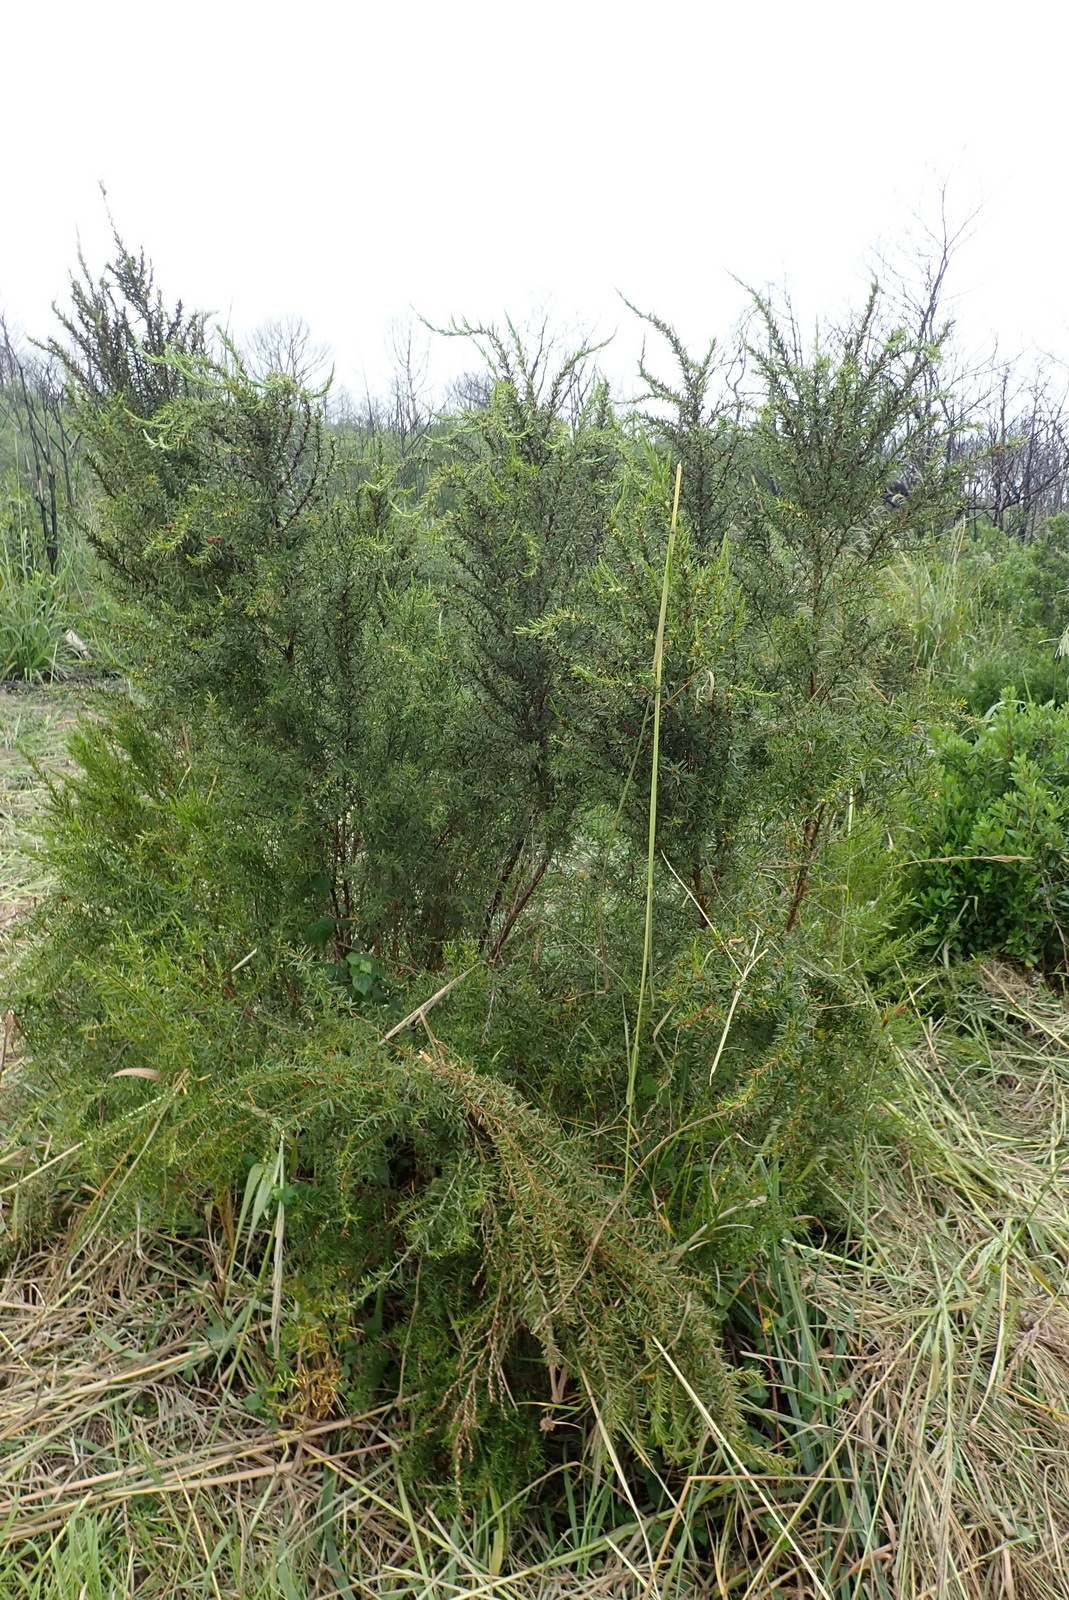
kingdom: Plantae
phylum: Tracheophyta
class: Magnoliopsida
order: Rosales
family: Rosaceae
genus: Cliffortia
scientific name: Cliffortia strobilifera
